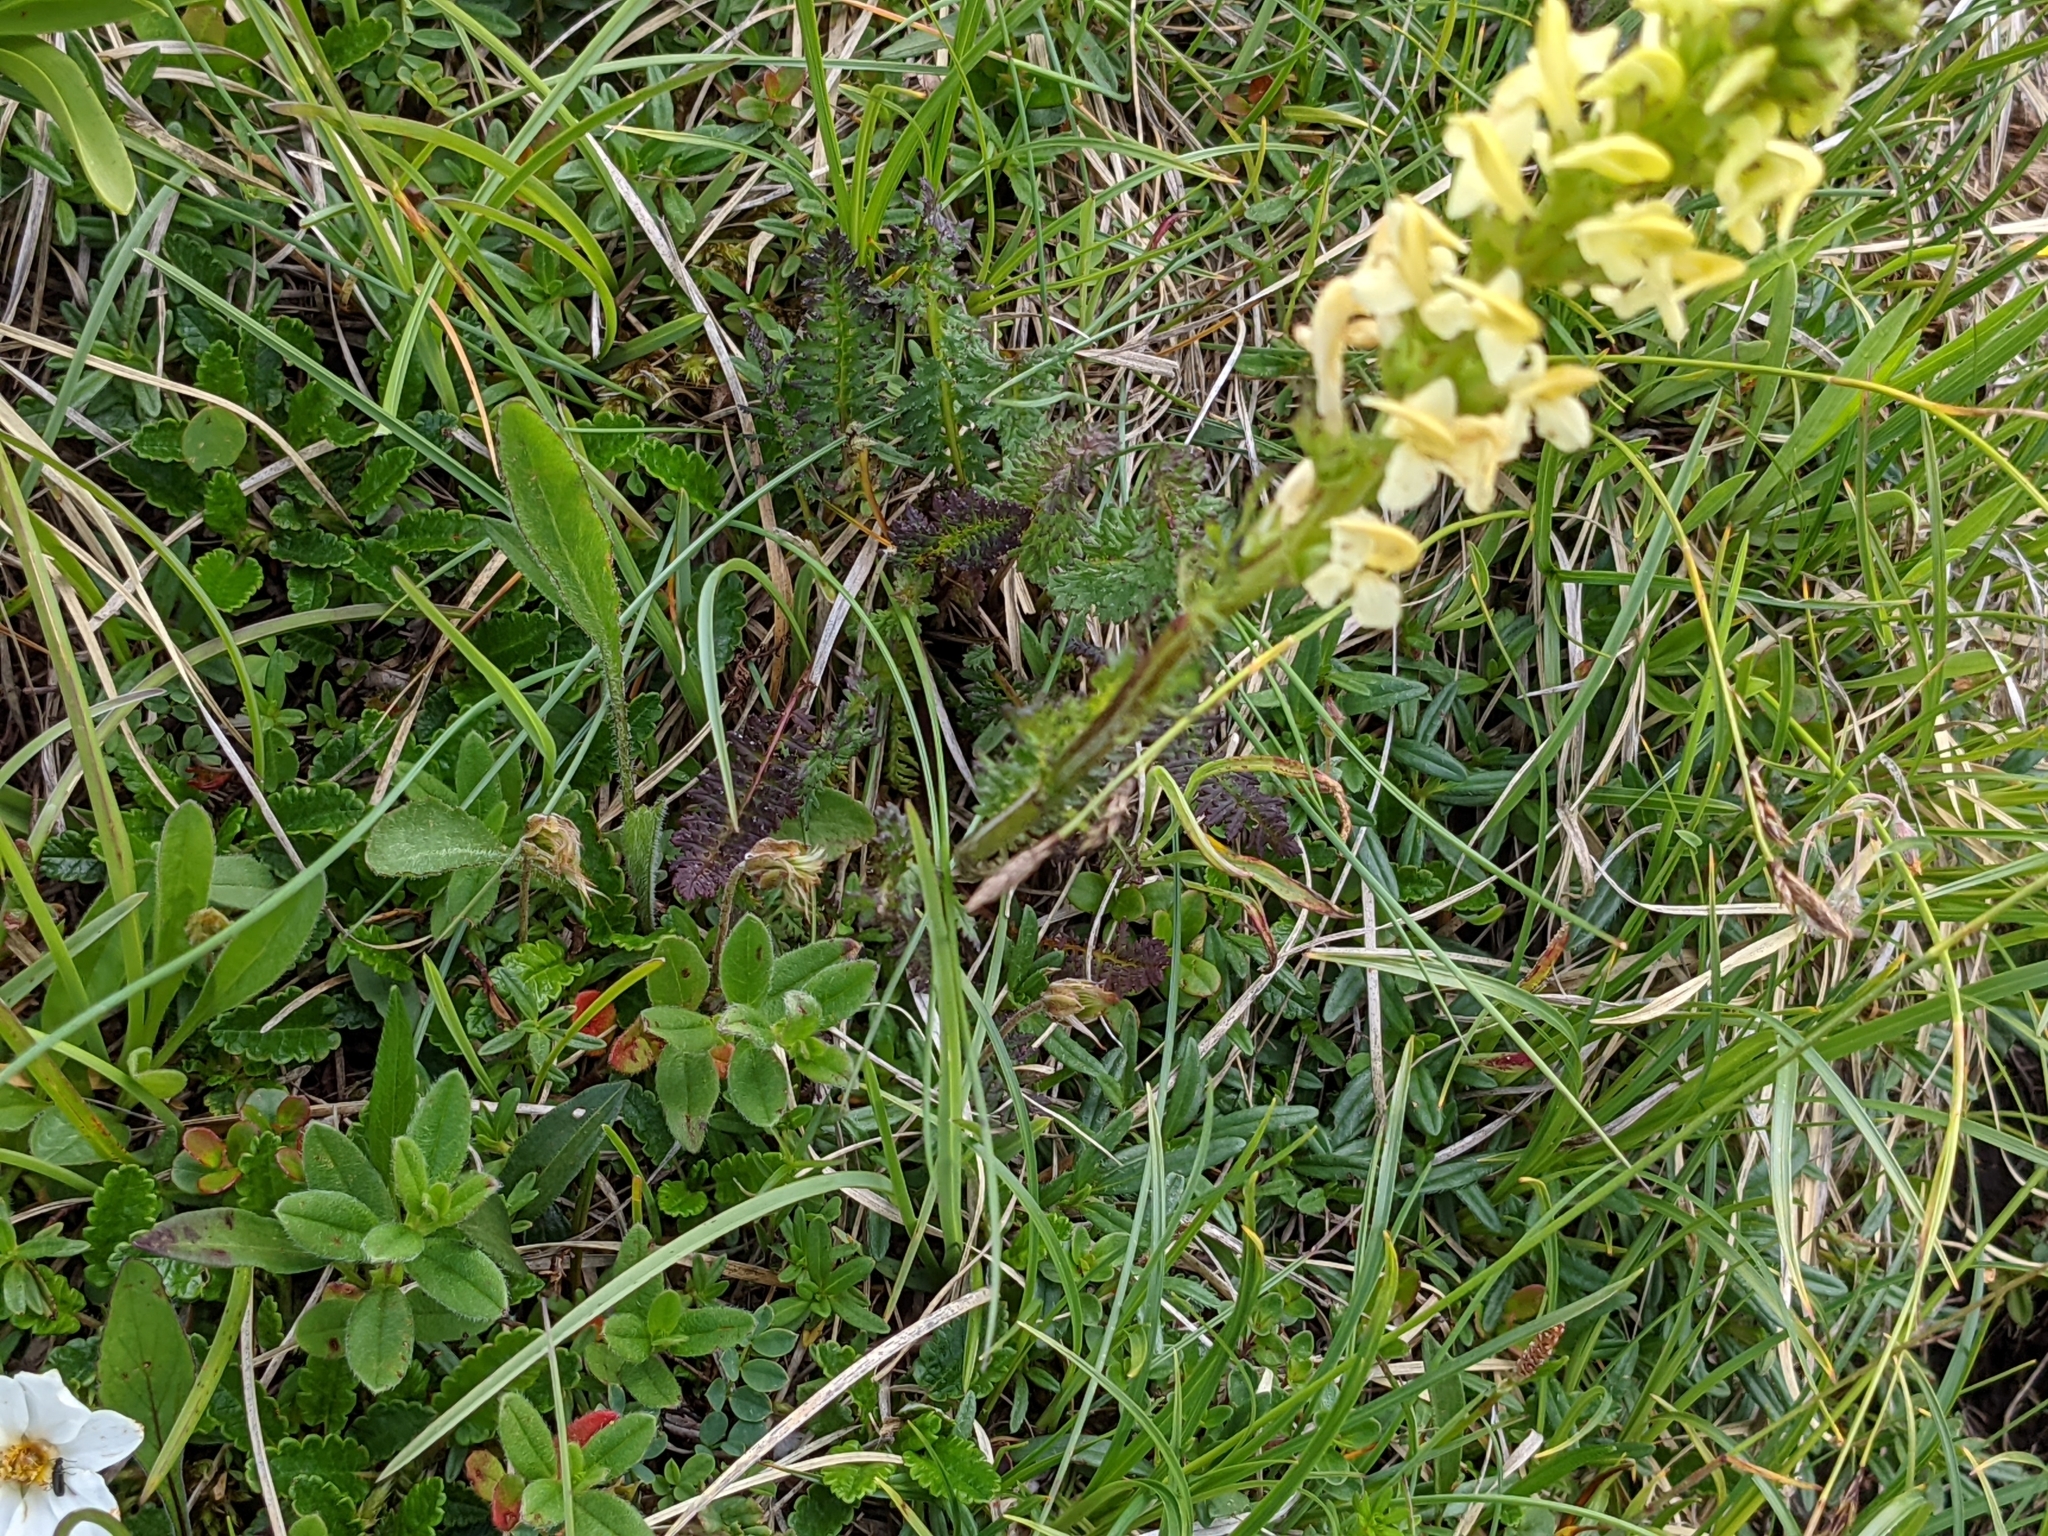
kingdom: Plantae
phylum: Tracheophyta
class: Magnoliopsida
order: Lamiales
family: Orobanchaceae
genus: Pedicularis
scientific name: Pedicularis ascendens
